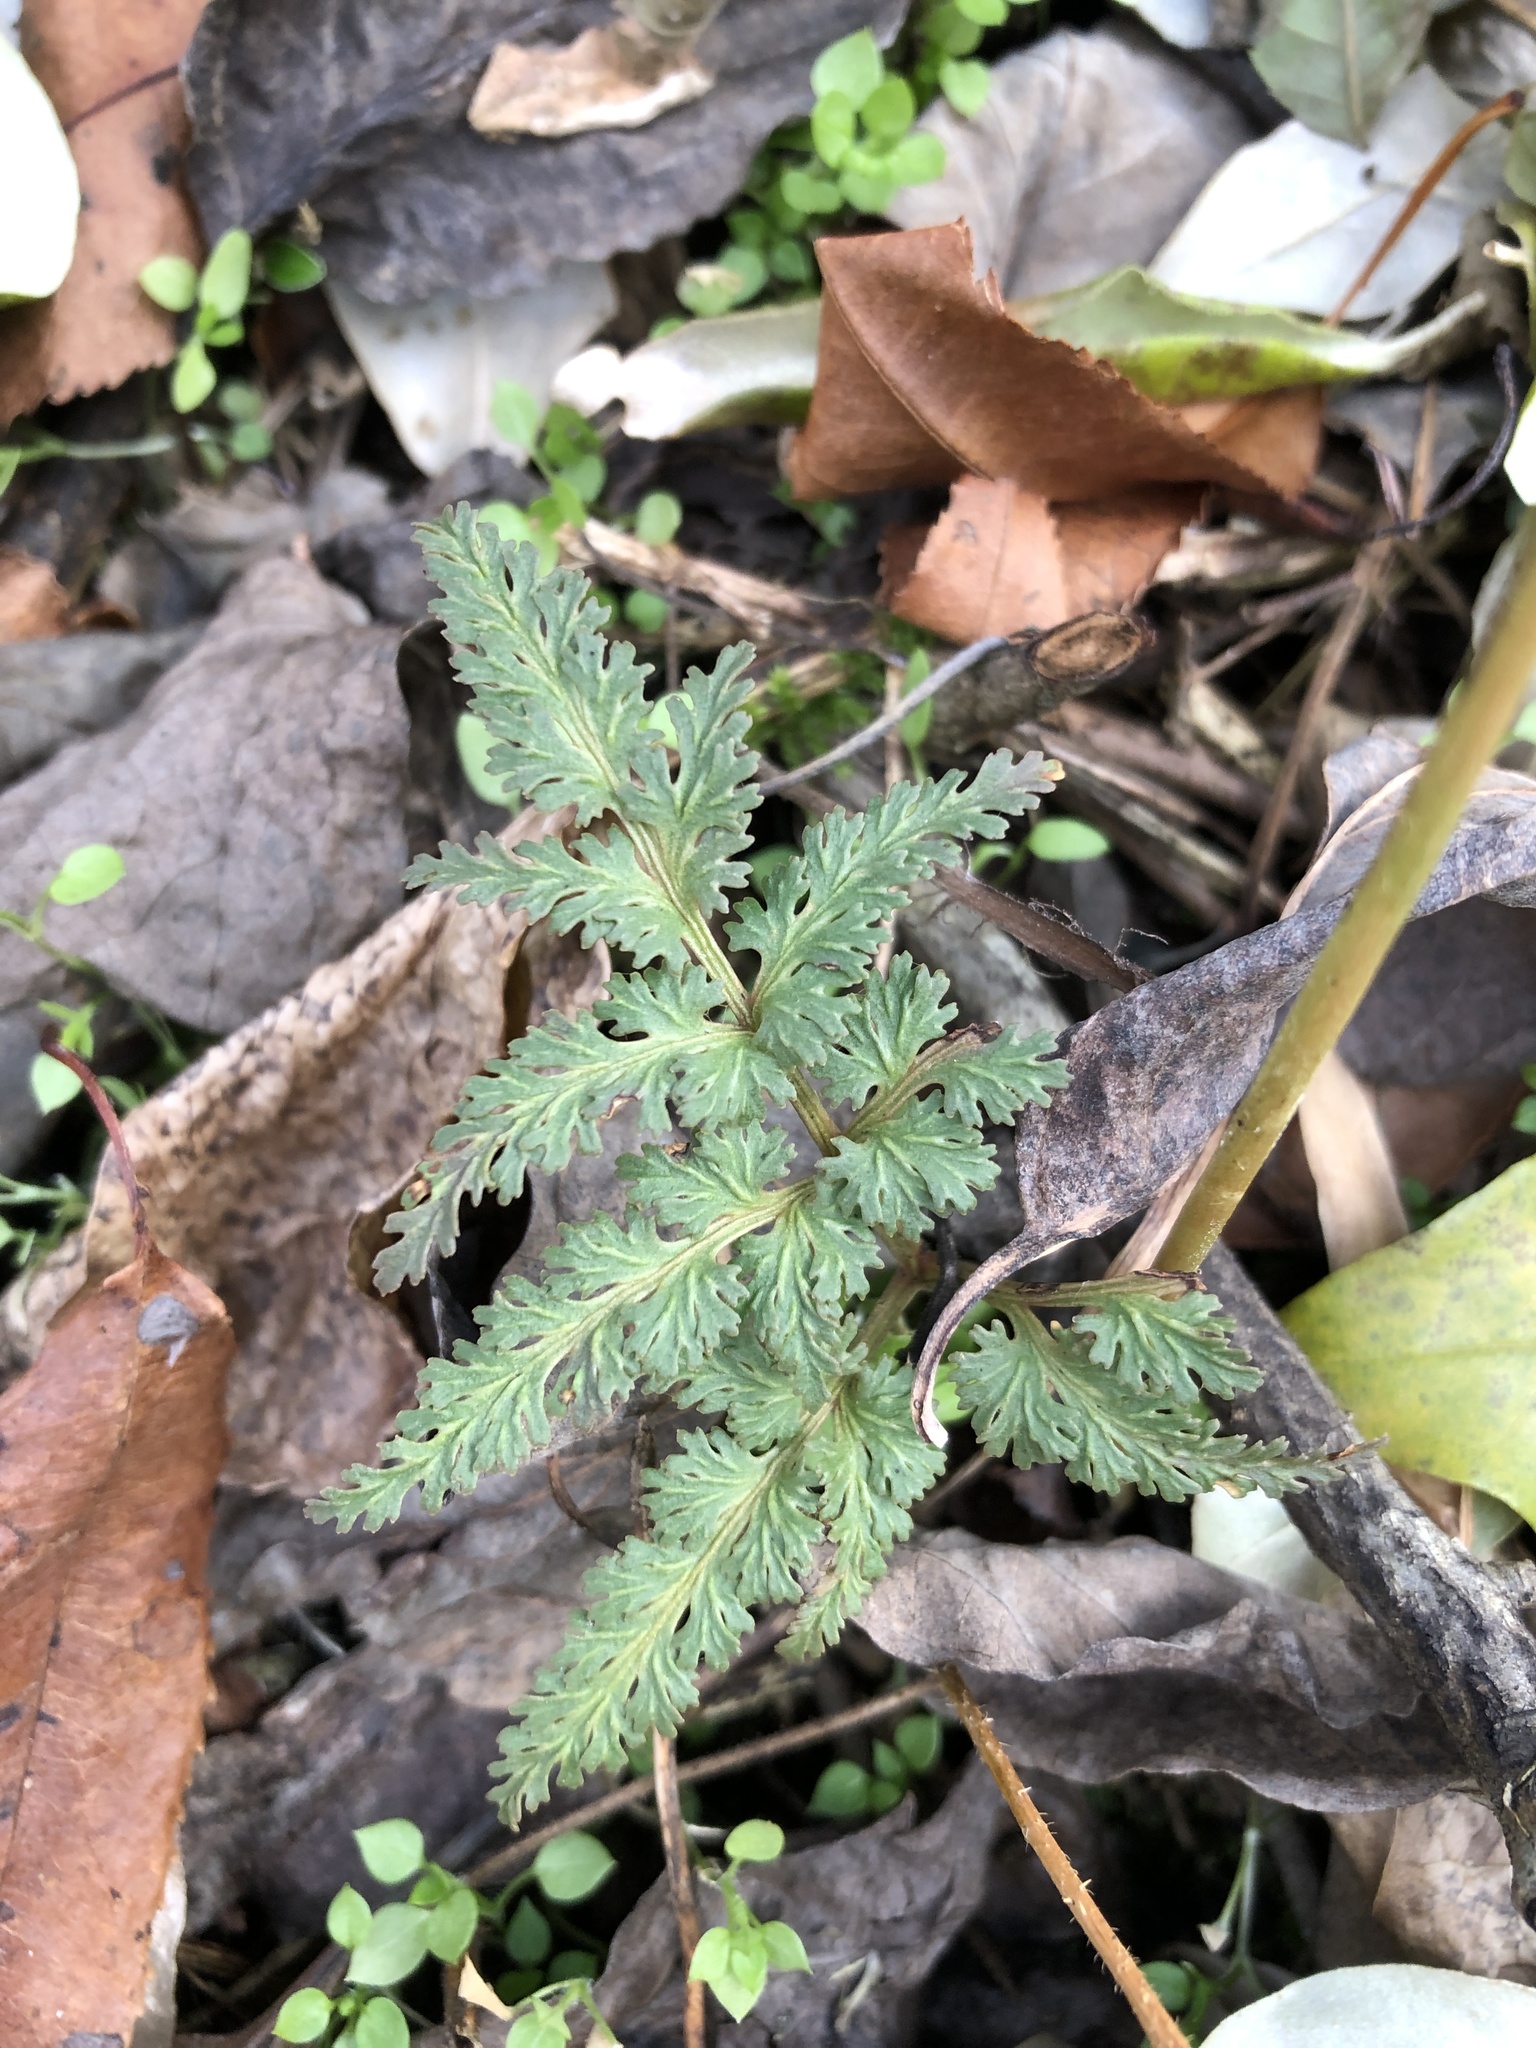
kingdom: Plantae
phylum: Tracheophyta
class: Polypodiopsida
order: Ophioglossales
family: Ophioglossaceae
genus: Sceptridium
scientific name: Sceptridium dissectum
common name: Cut-leaved grapefern
